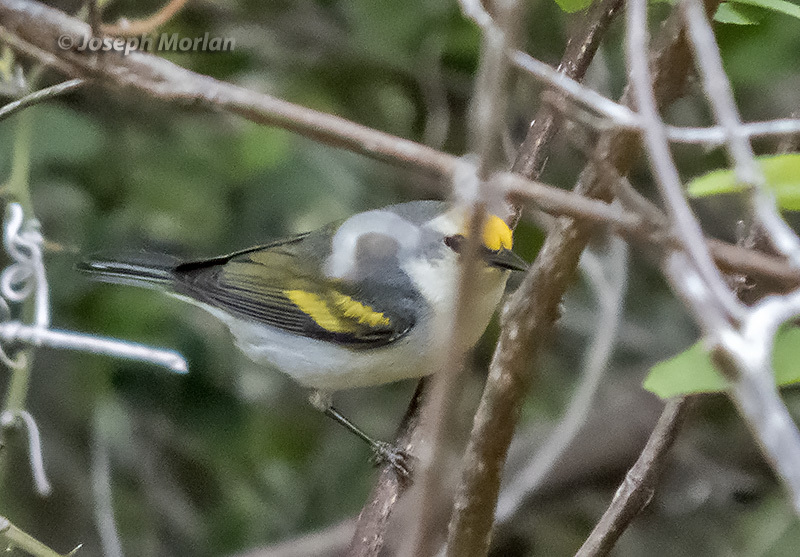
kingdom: Animalia
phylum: Chordata
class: Aves
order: Passeriformes
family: Parulidae
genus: Vermivora
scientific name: Vermivora
